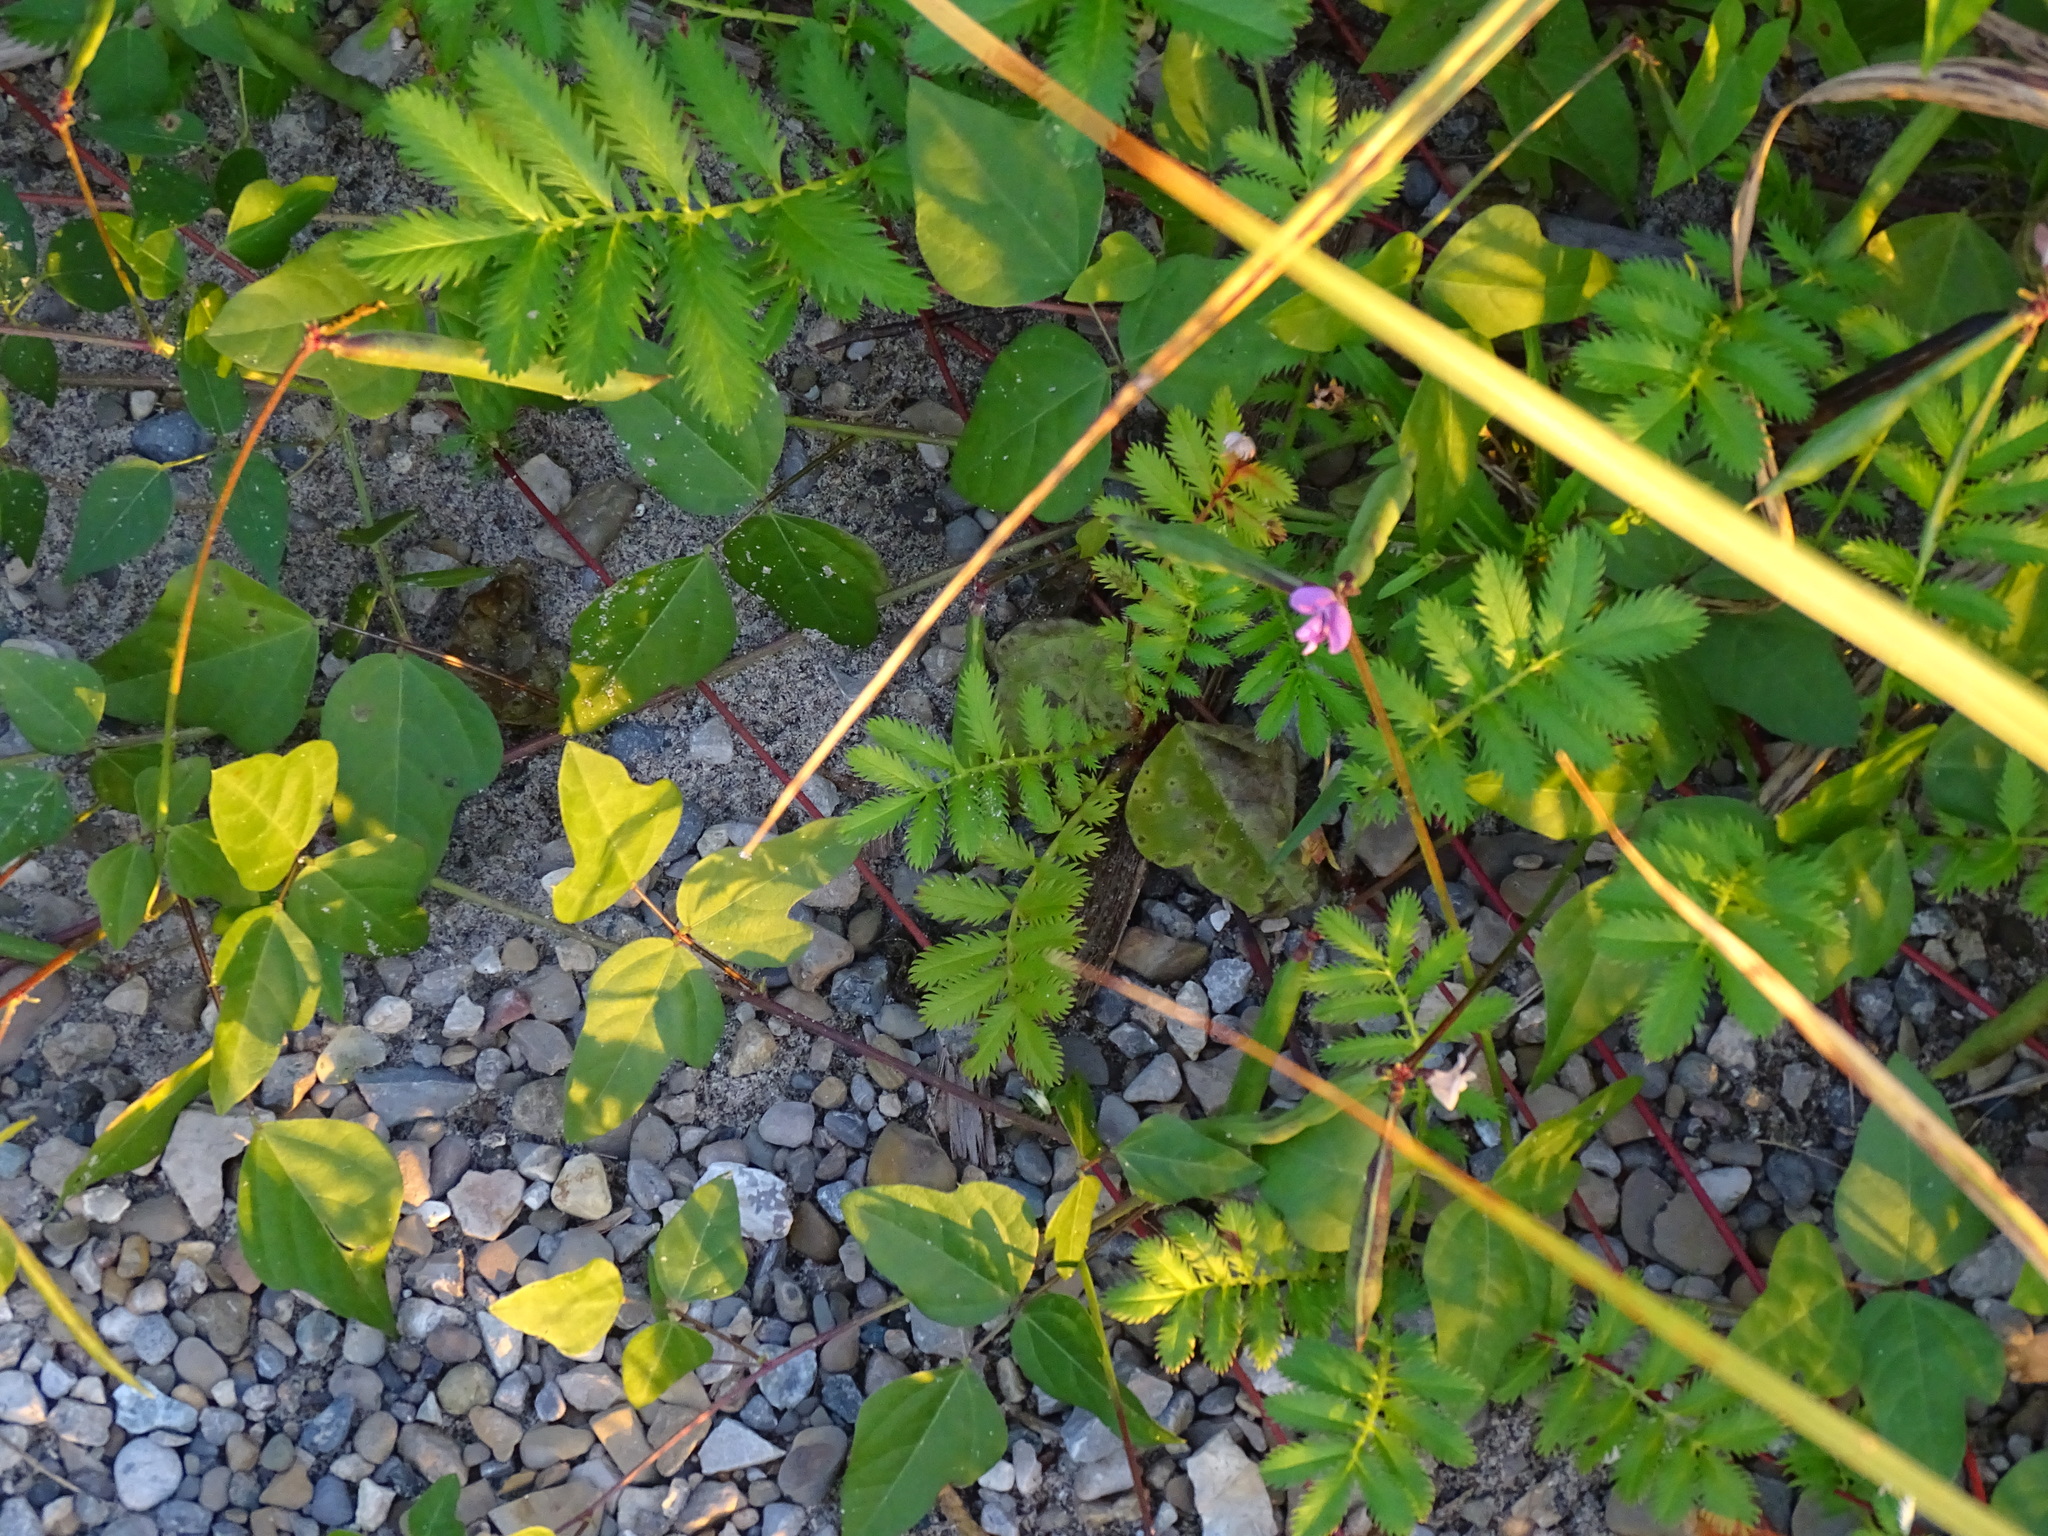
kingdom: Plantae
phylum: Tracheophyta
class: Magnoliopsida
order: Fabales
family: Fabaceae
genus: Strophostyles
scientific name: Strophostyles helvola
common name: Trailing wild bean
